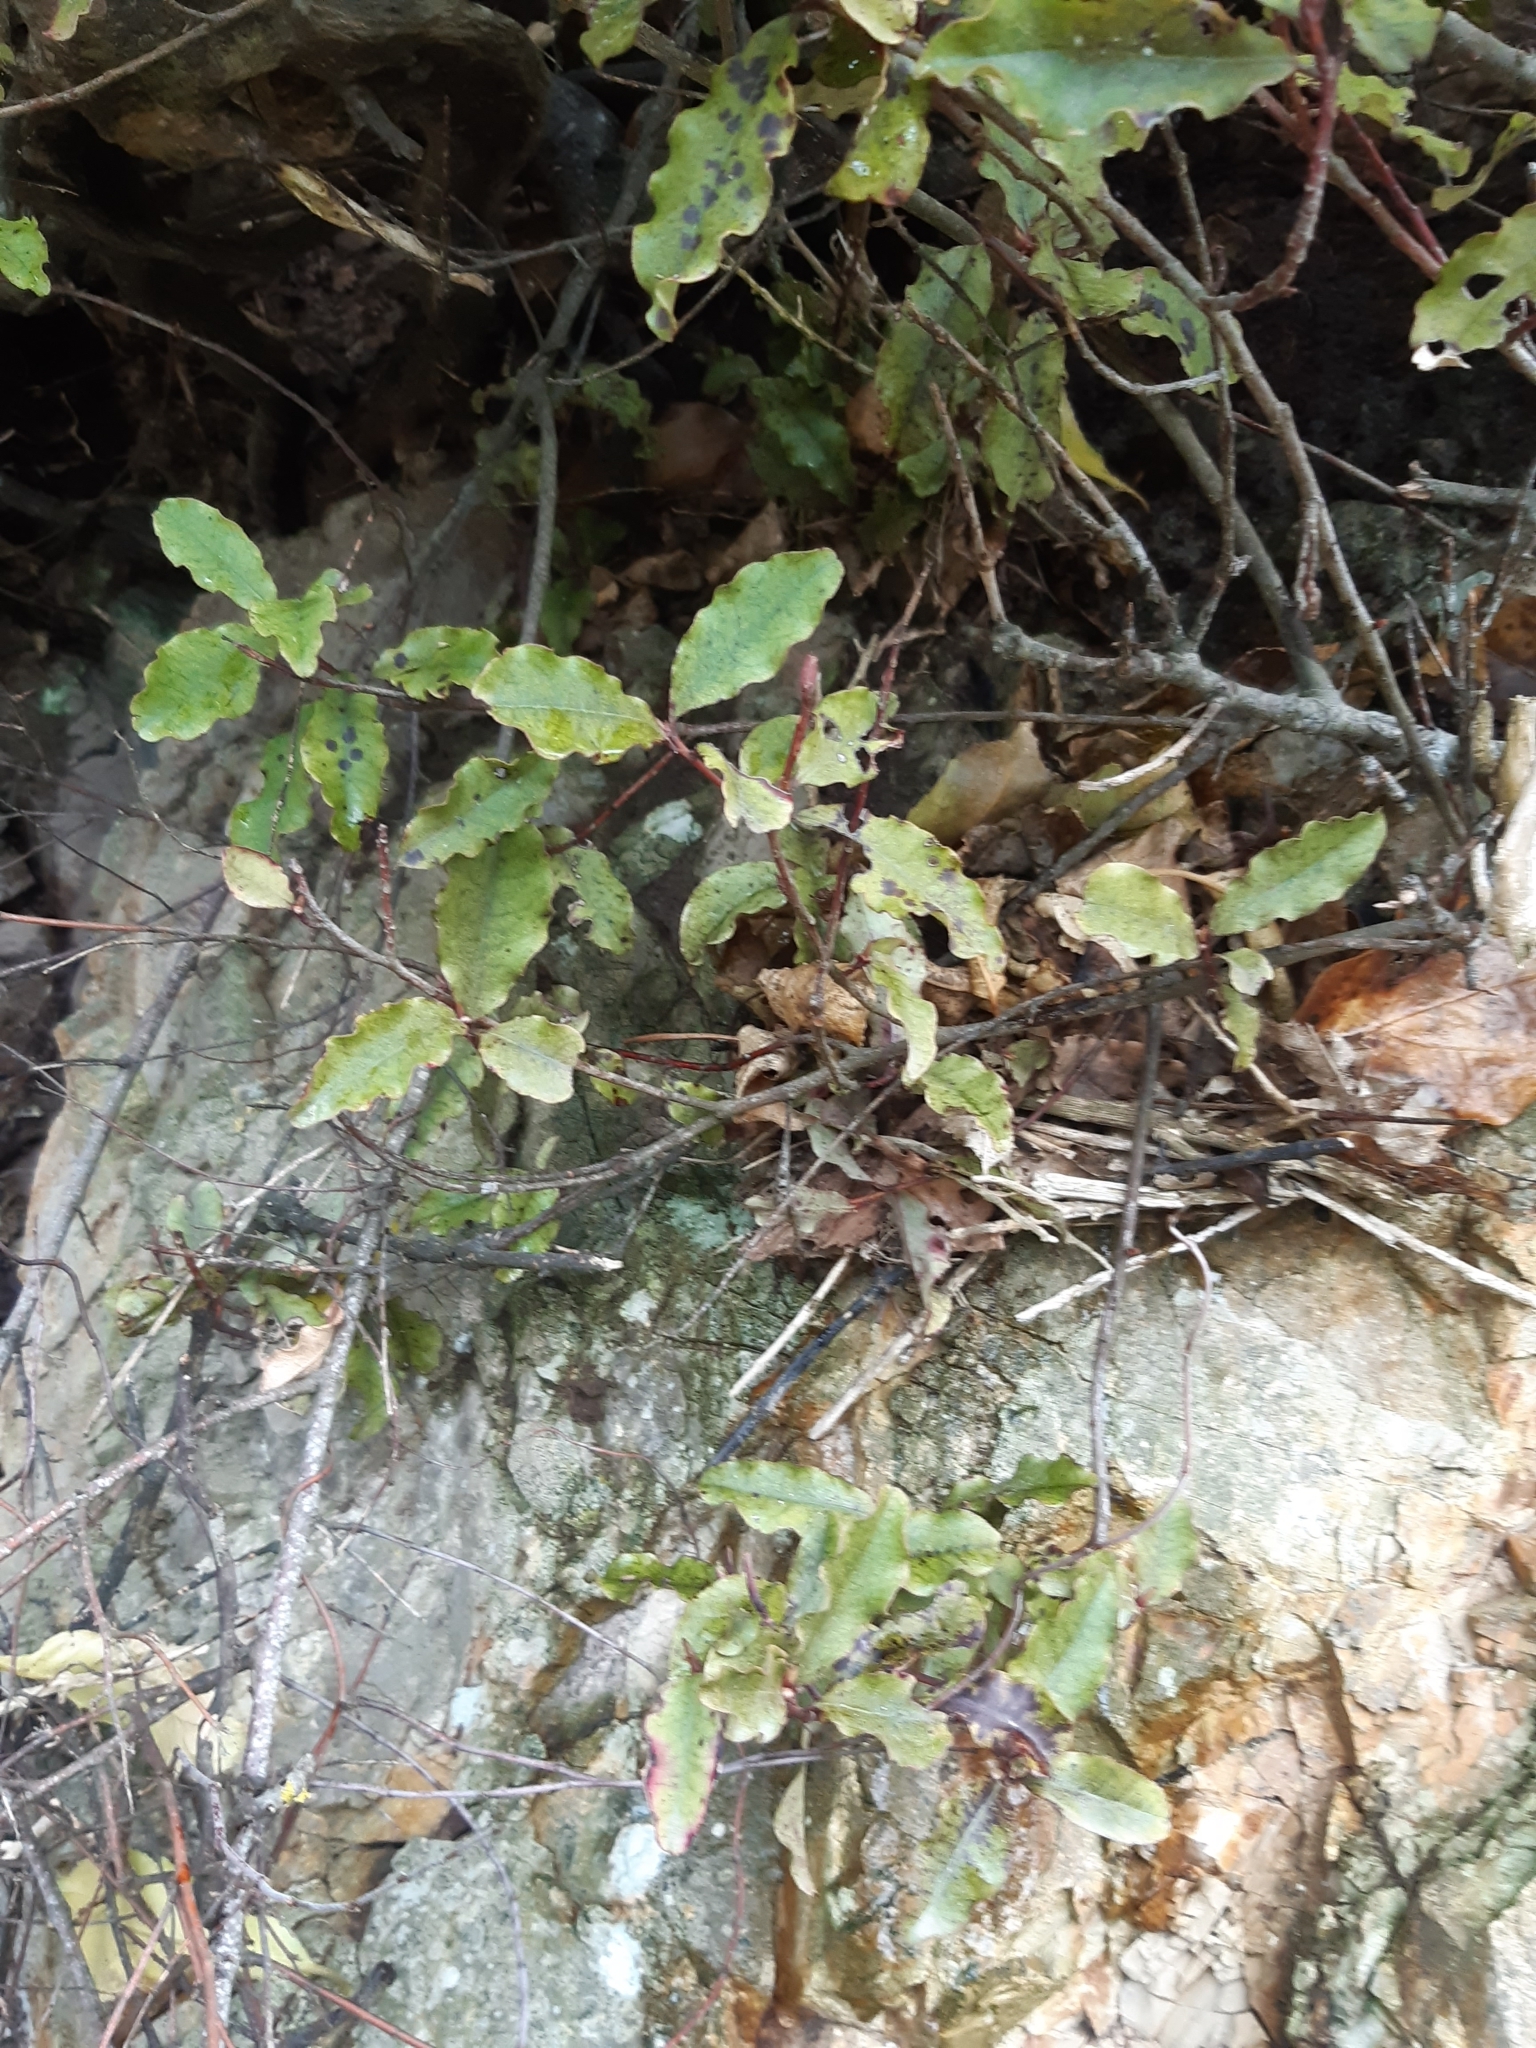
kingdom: Plantae
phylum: Tracheophyta
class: Magnoliopsida
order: Ericales
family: Primulaceae
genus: Myrsine
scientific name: Myrsine australis
